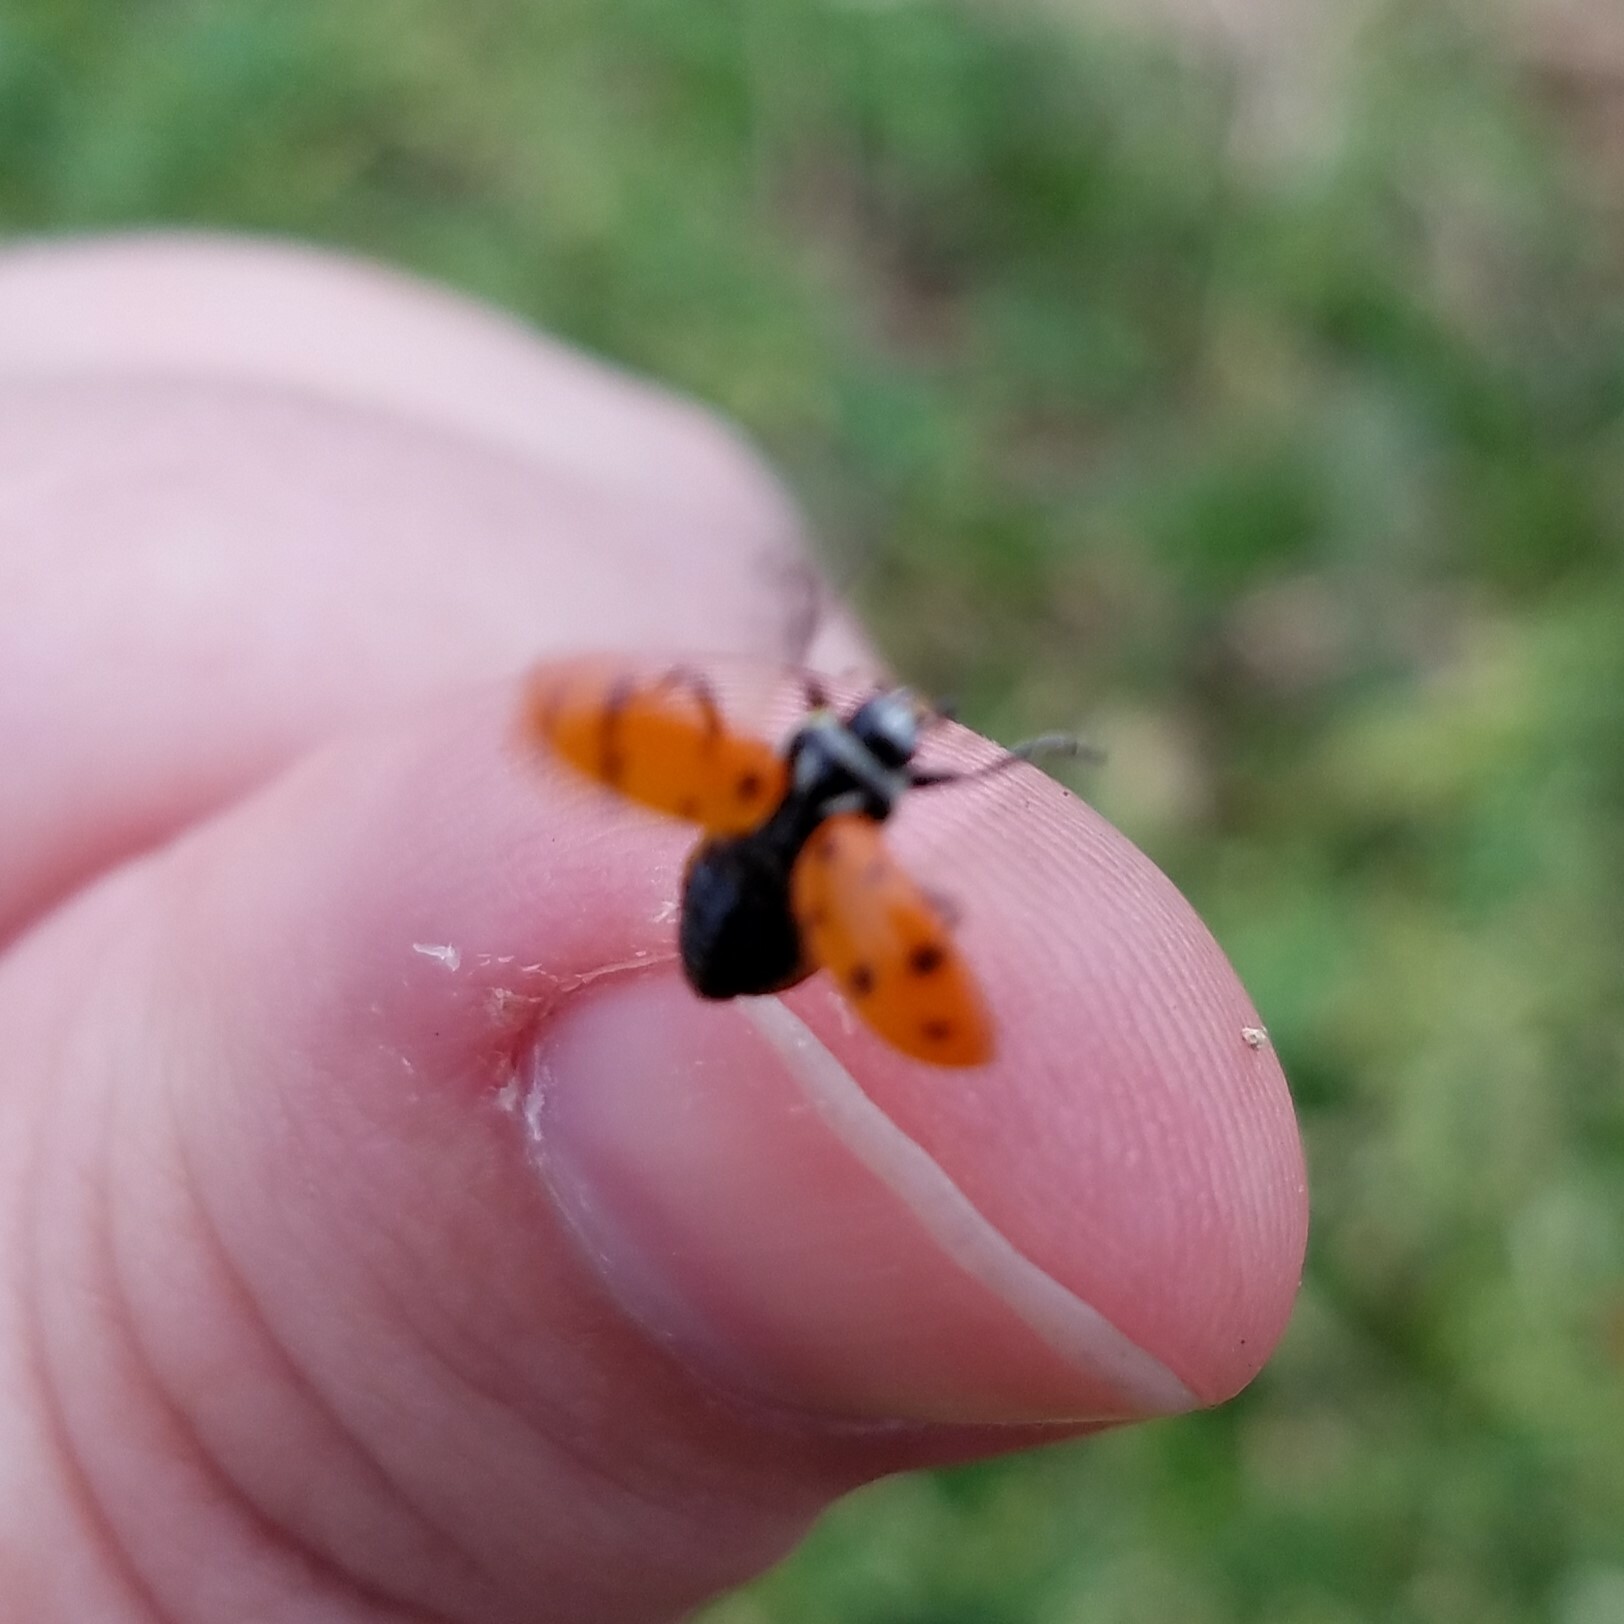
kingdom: Animalia
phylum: Arthropoda
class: Insecta
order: Coleoptera
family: Coccinellidae
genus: Hippodamia
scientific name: Hippodamia convergens
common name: Convergent lady beetle
